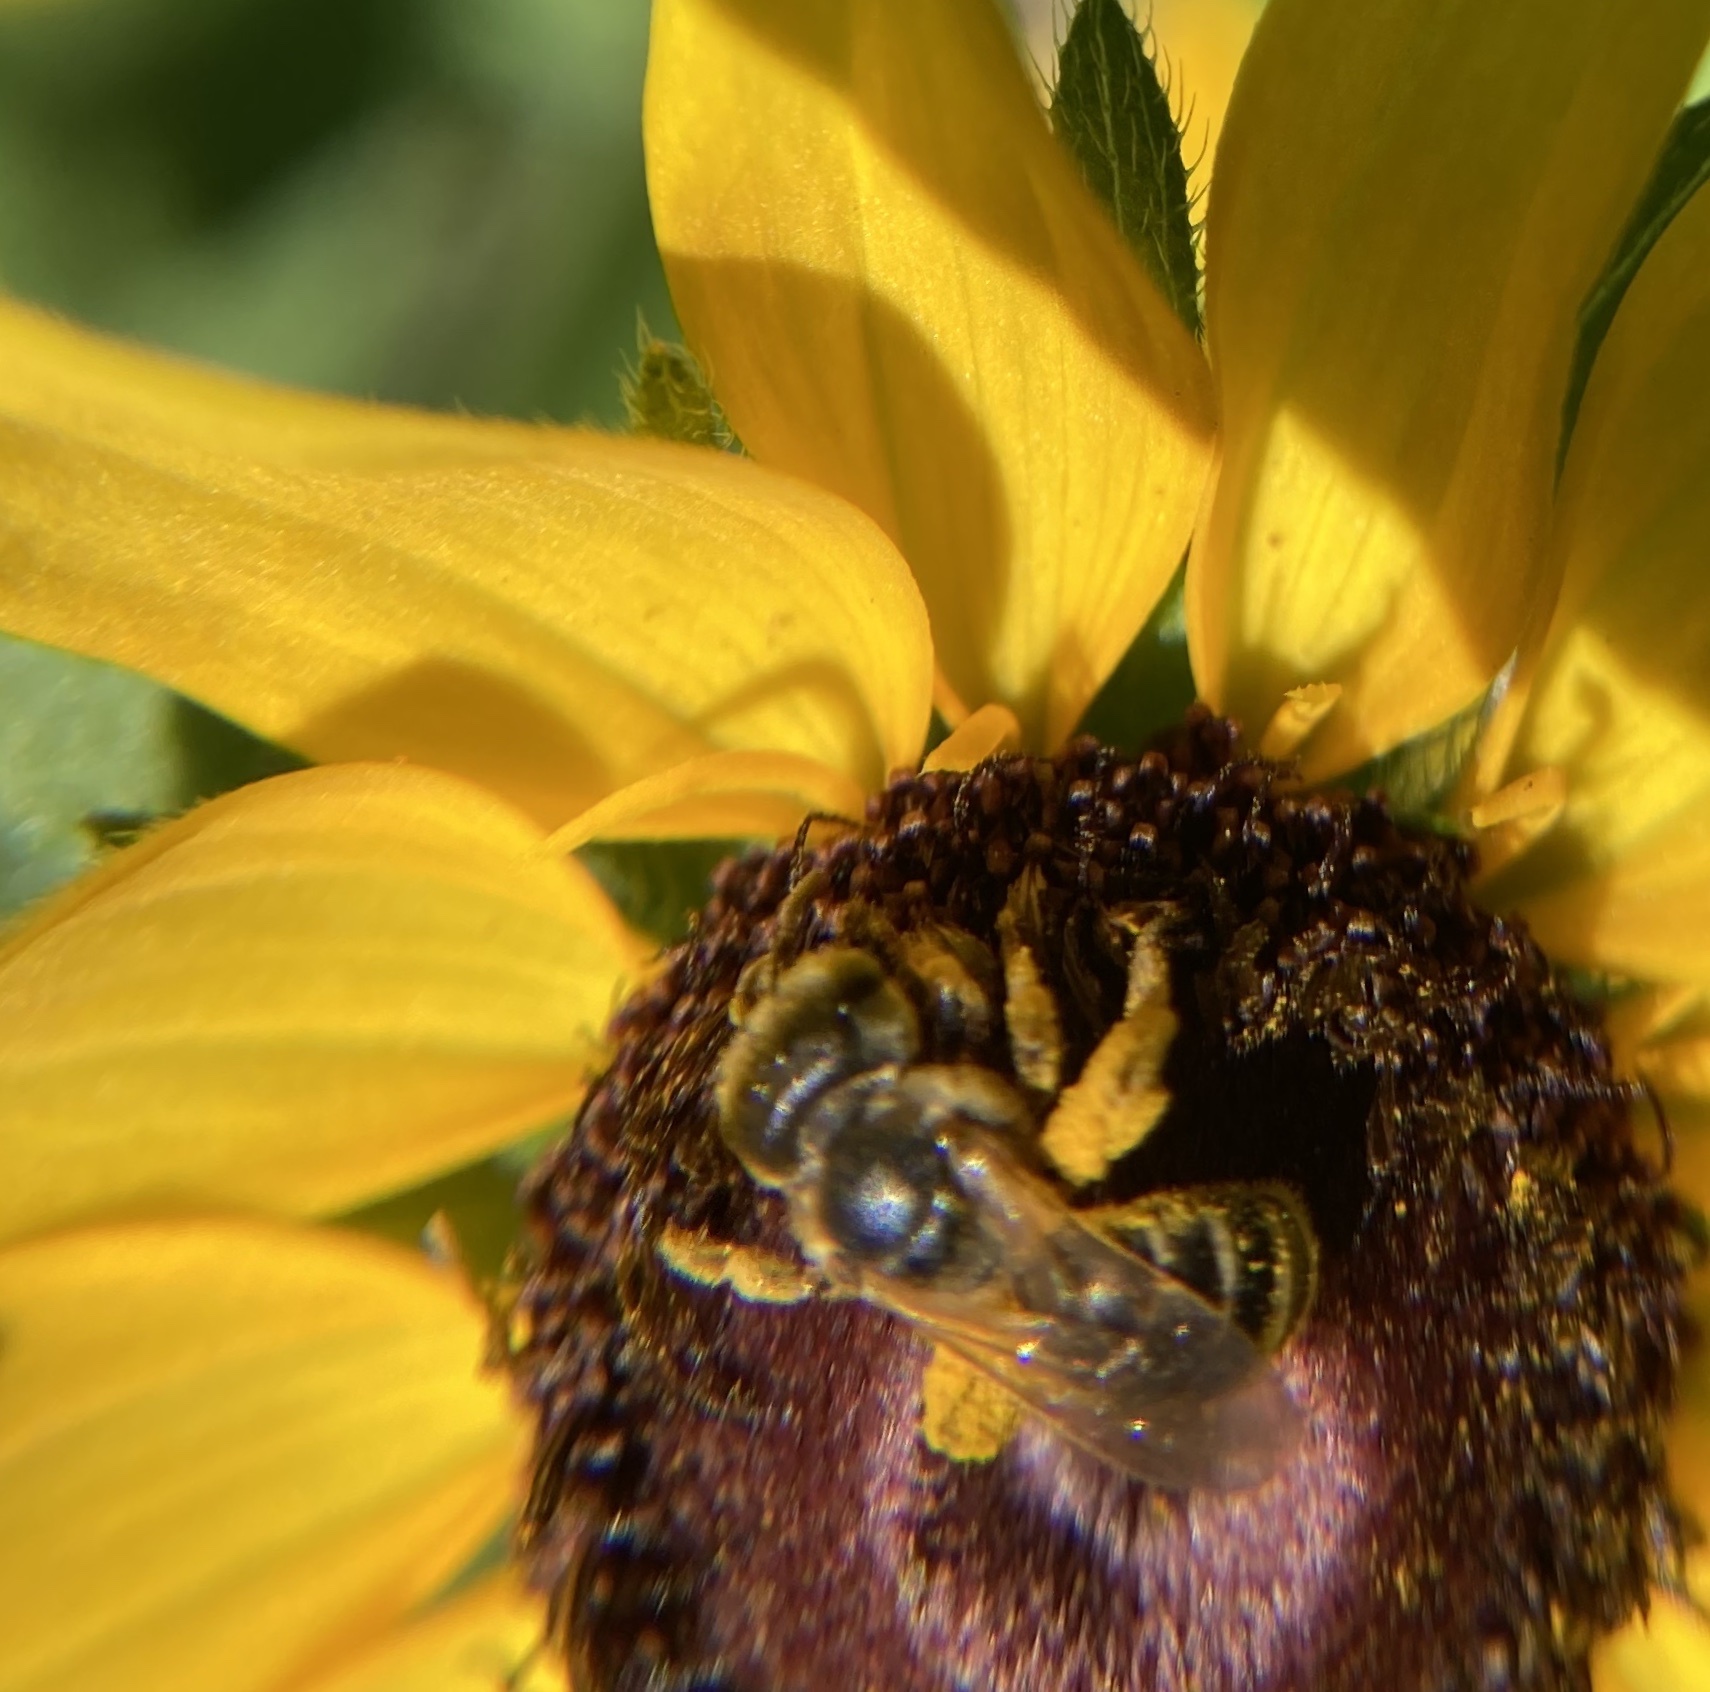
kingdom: Animalia
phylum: Arthropoda
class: Insecta
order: Hymenoptera
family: Halictidae
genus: Halictus
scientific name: Halictus ligatus
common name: Ligated furrow bee
